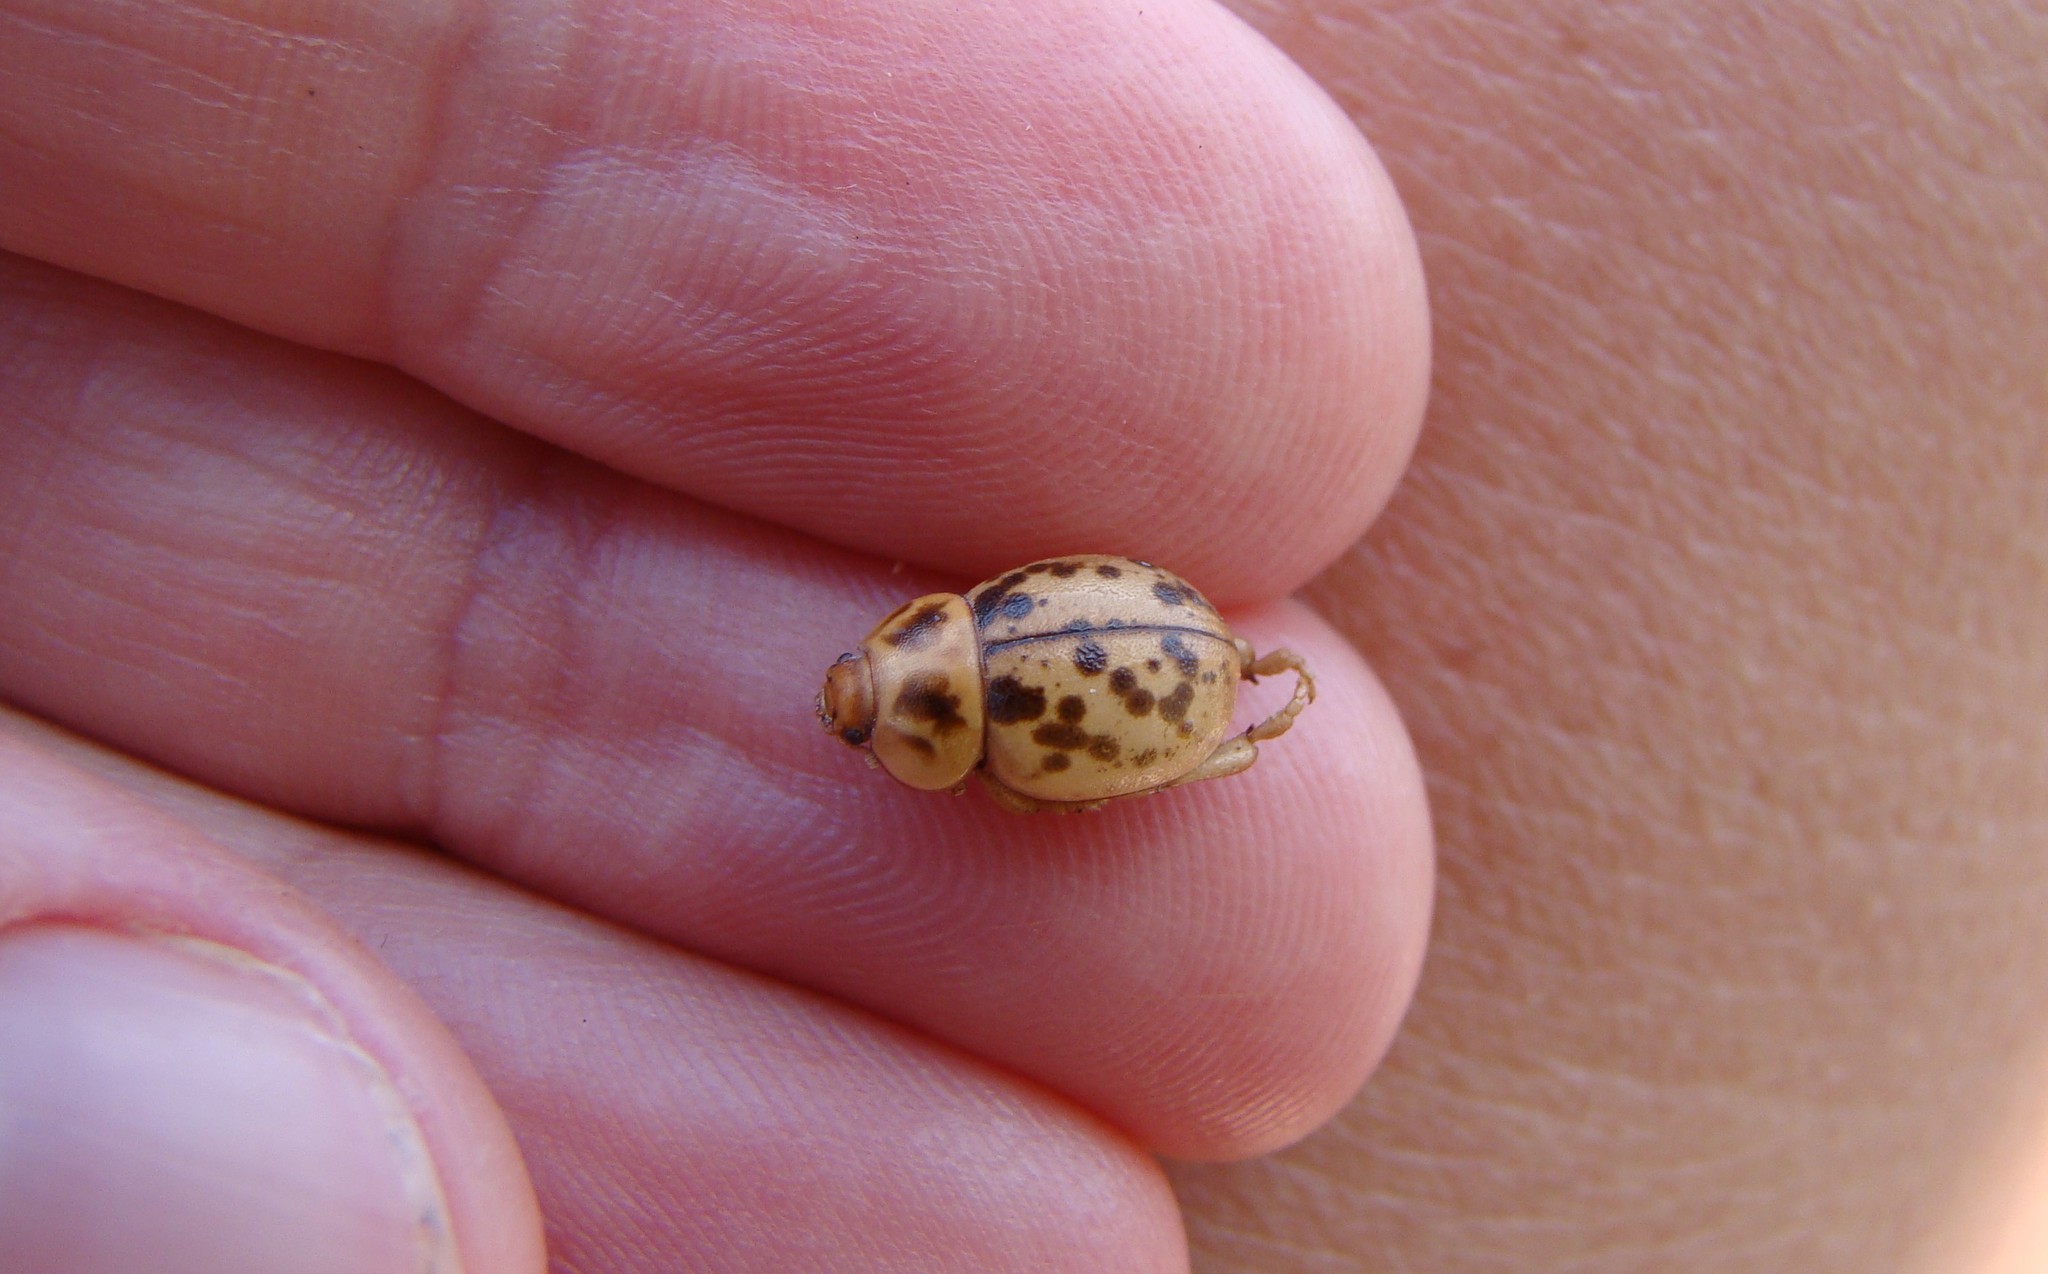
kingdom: Animalia
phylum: Arthropoda
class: Insecta
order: Coleoptera
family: Tenebrionidae
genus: Chaerodes
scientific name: Chaerodes trachyscelides
